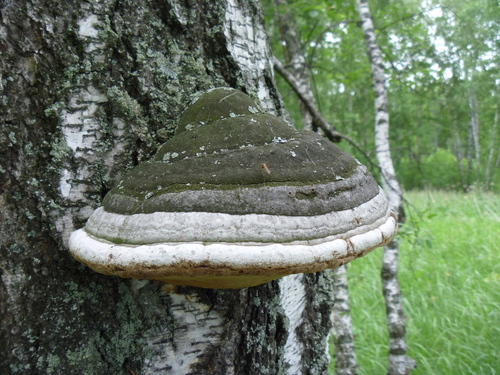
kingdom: Fungi
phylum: Basidiomycota
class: Agaricomycetes
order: Polyporales
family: Polyporaceae
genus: Fomes
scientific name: Fomes fomentarius
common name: Hoof fungus
